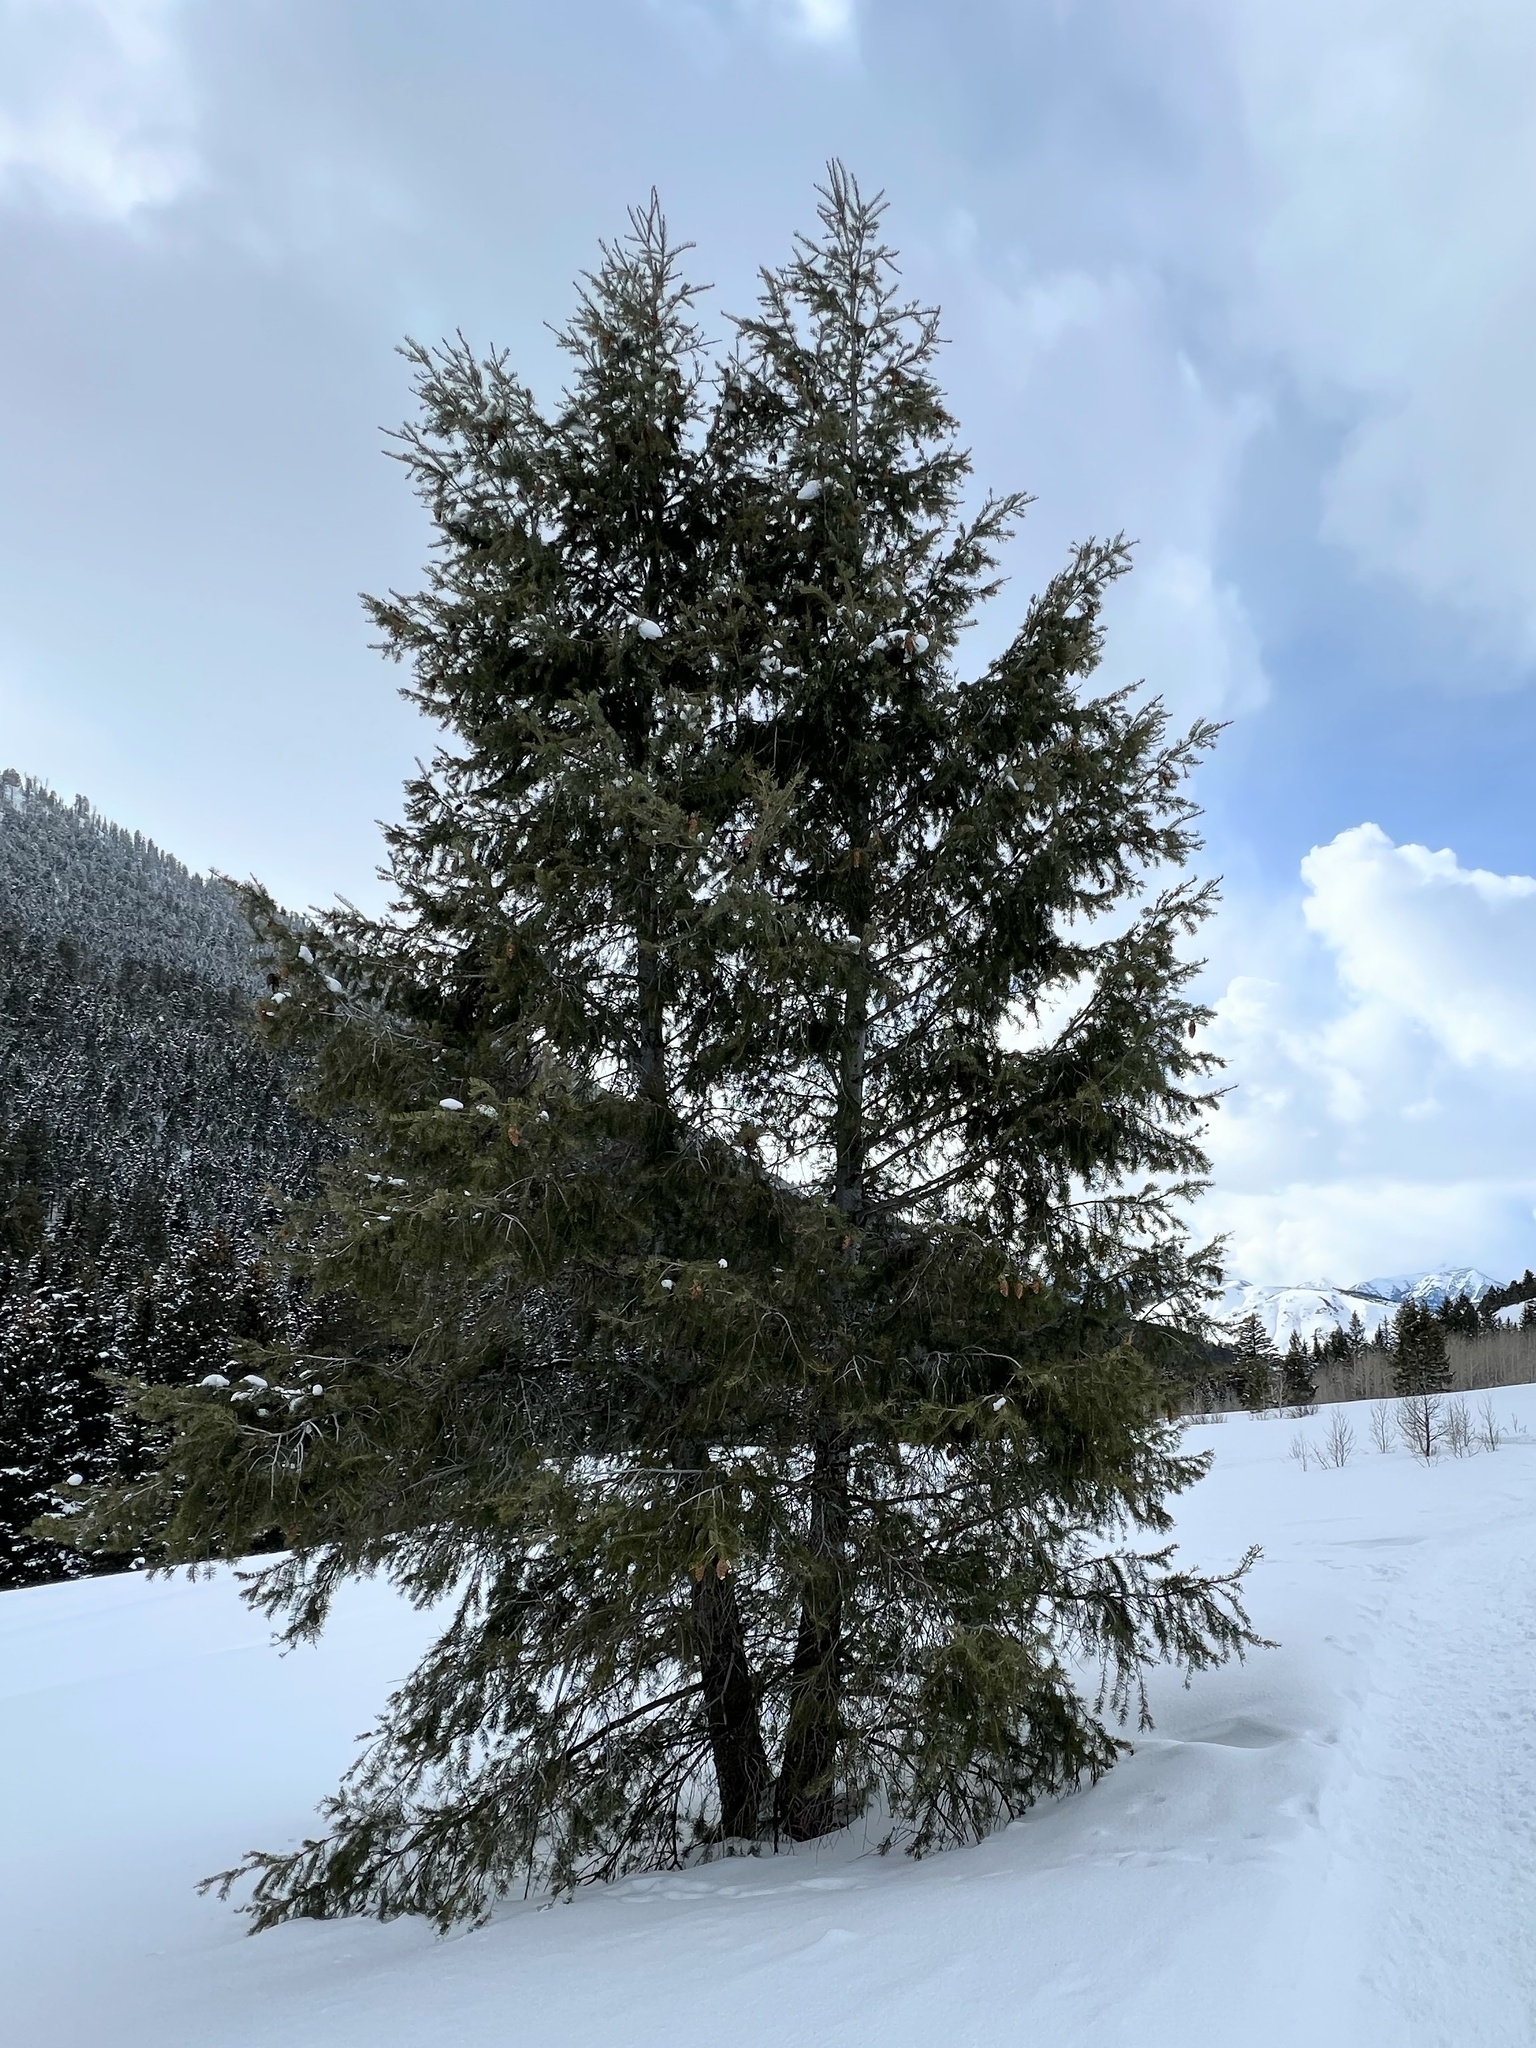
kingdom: Plantae
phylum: Tracheophyta
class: Pinopsida
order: Pinales
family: Pinaceae
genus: Pseudotsuga
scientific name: Pseudotsuga menziesii
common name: Douglas fir
